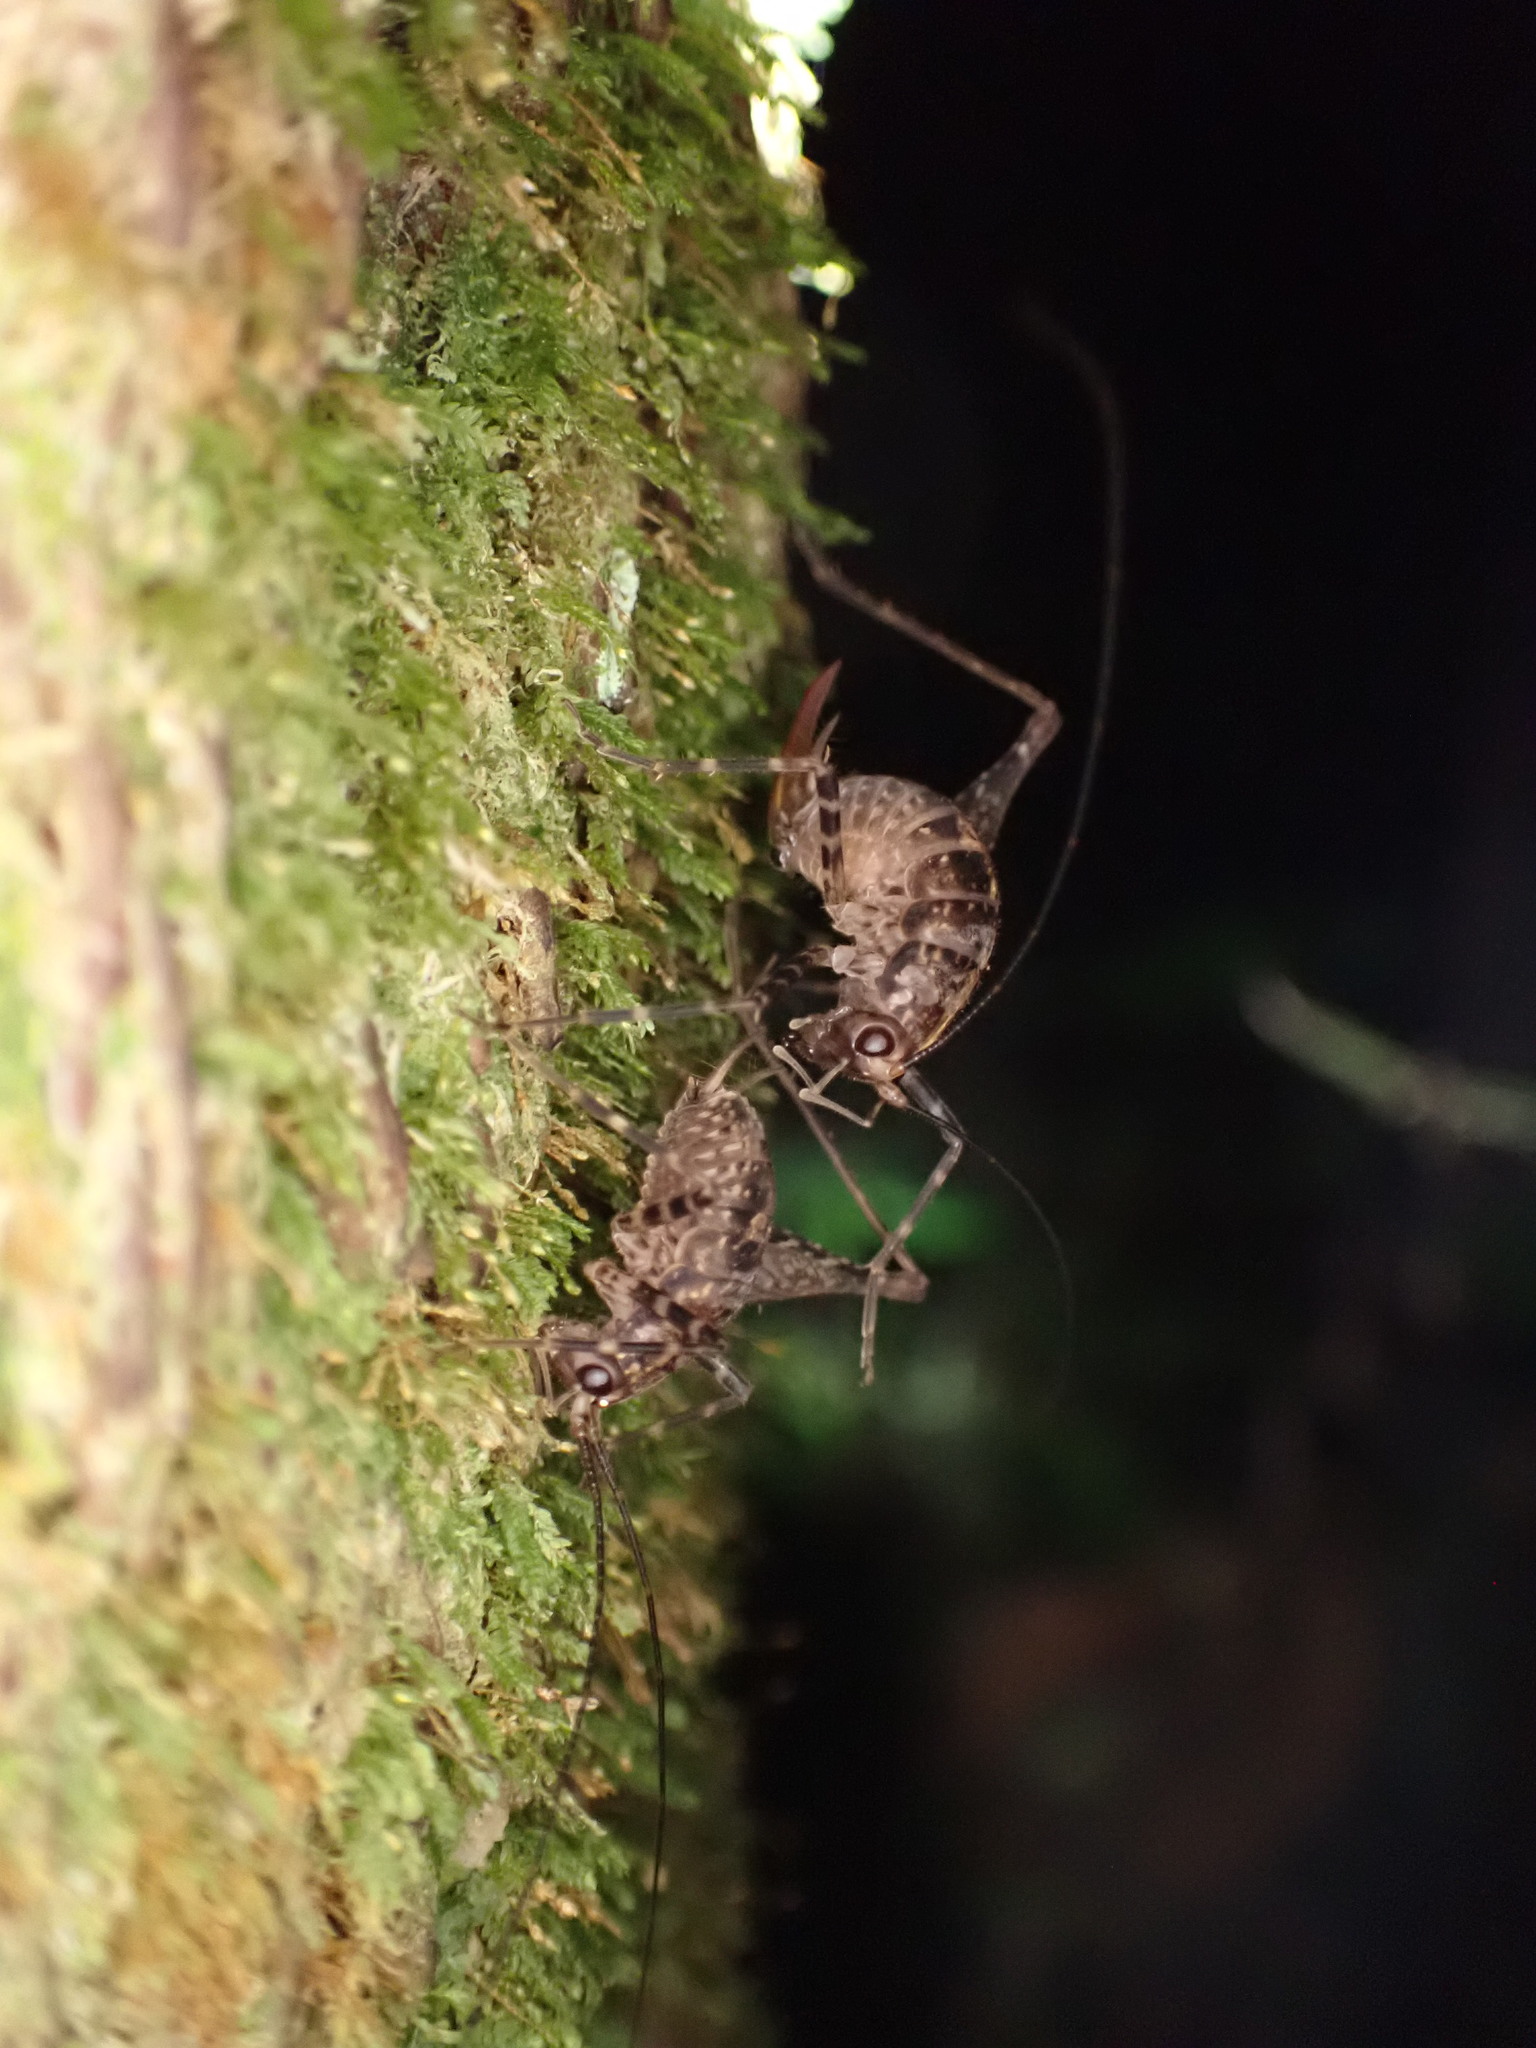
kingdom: Animalia
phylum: Arthropoda
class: Insecta
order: Orthoptera
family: Rhaphidophoridae
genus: Pleioplectron
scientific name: Pleioplectron hudsoni
